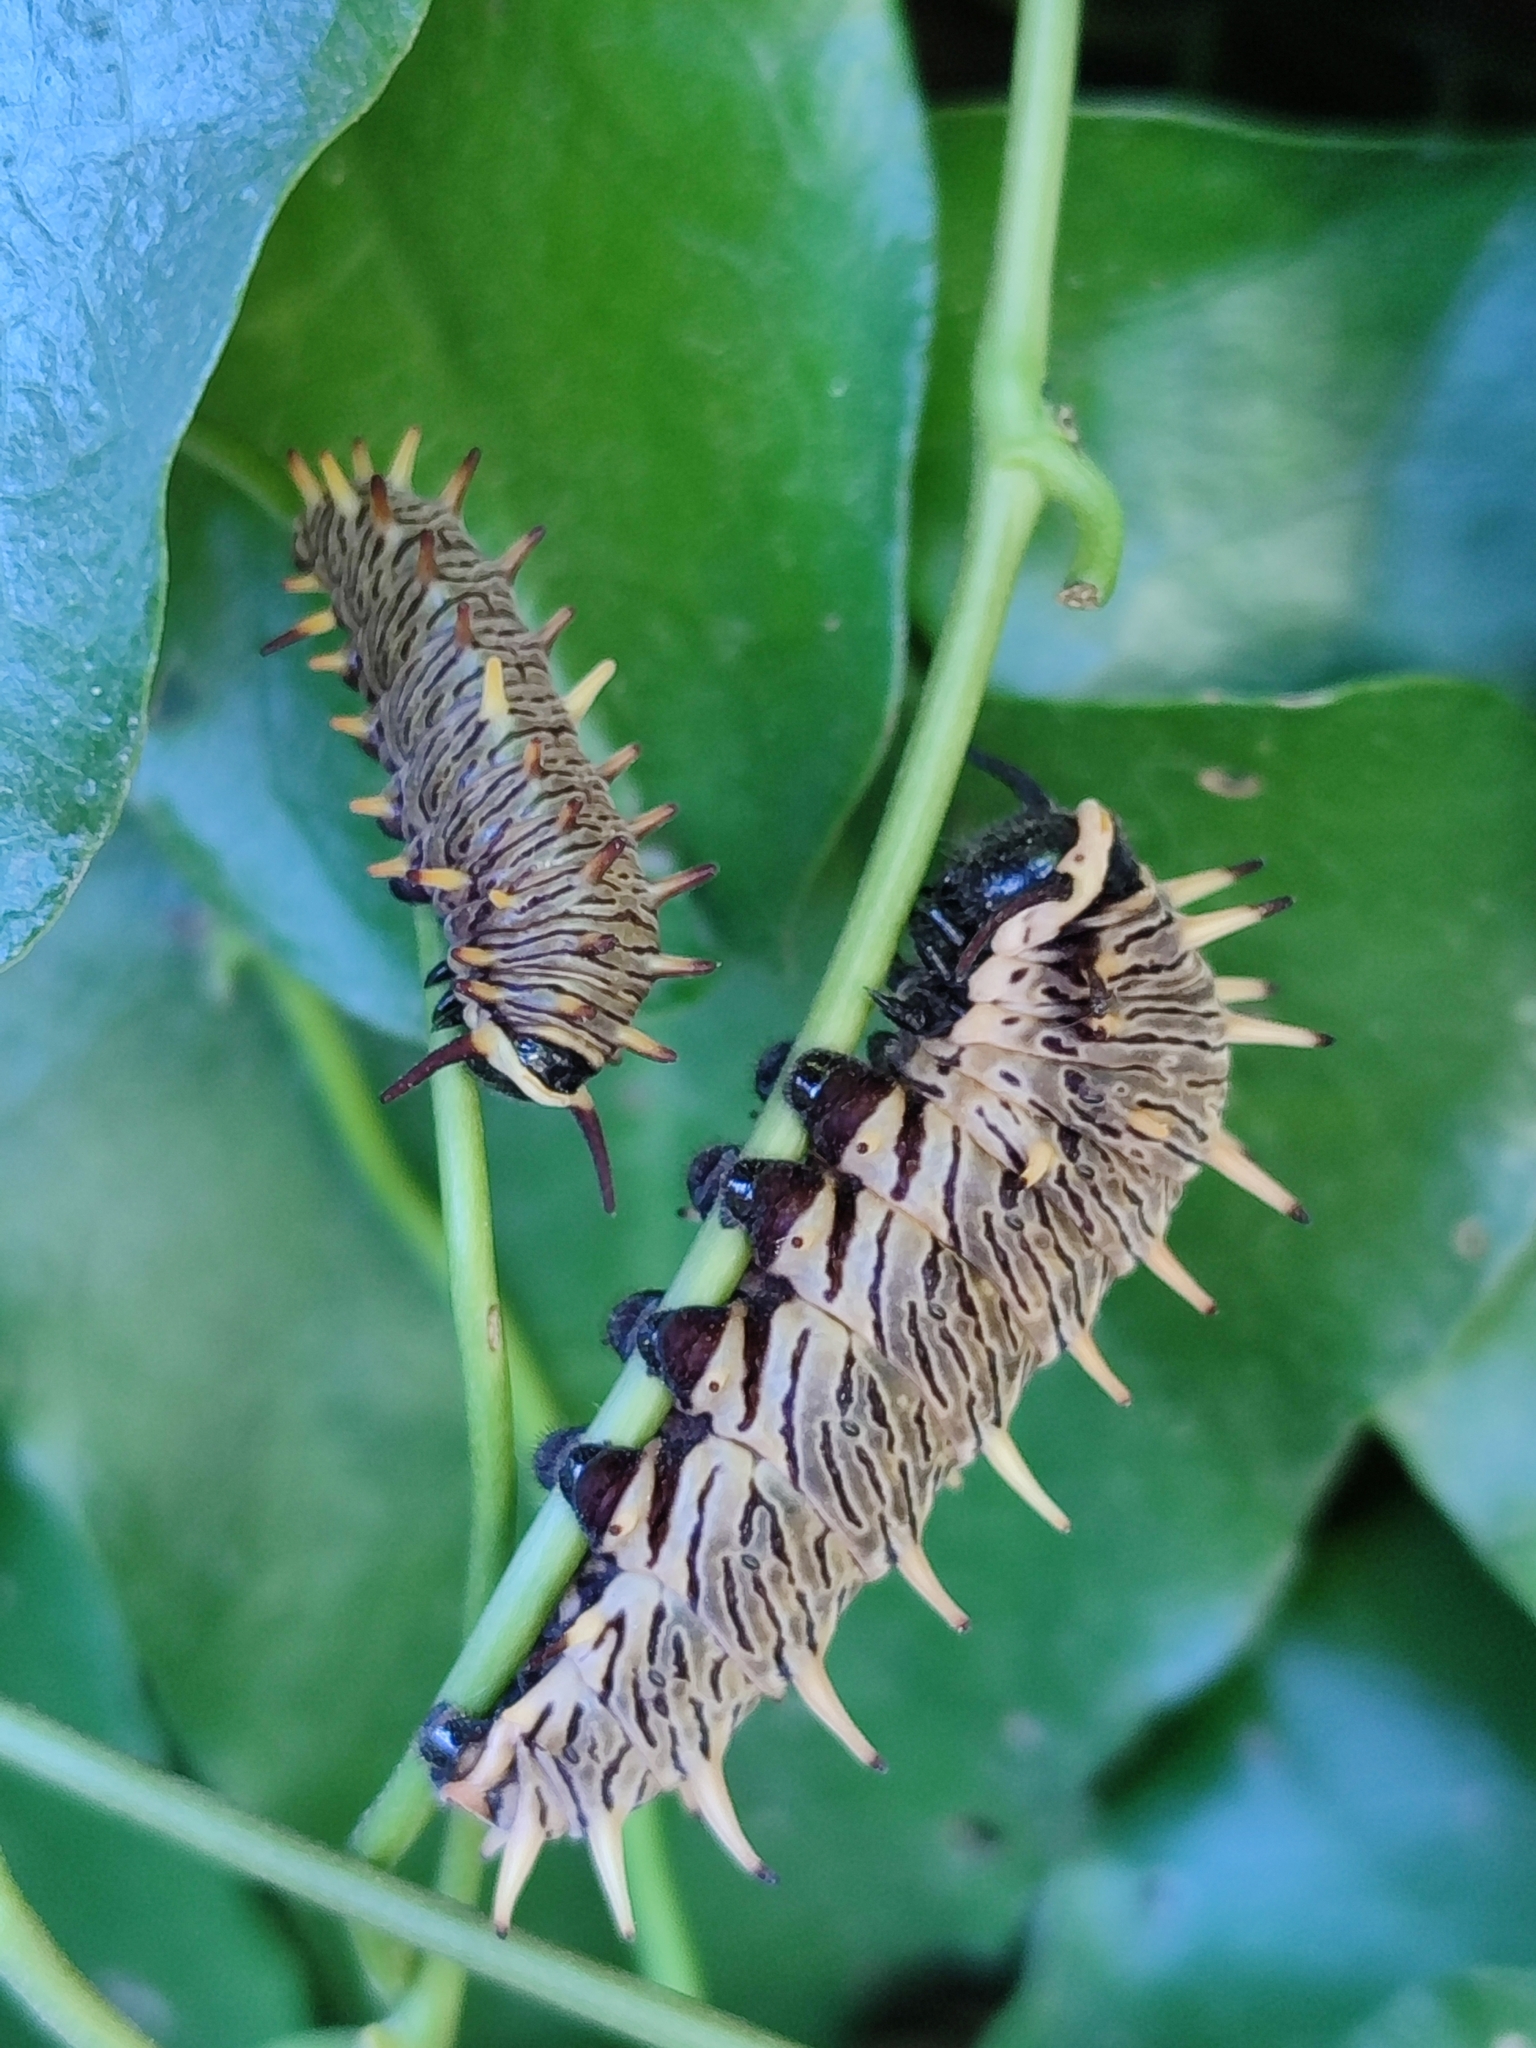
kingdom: Animalia
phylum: Arthropoda
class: Insecta
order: Lepidoptera
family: Papilionidae
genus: Battus
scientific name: Battus polydamas
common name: Polydamas swallowtail
